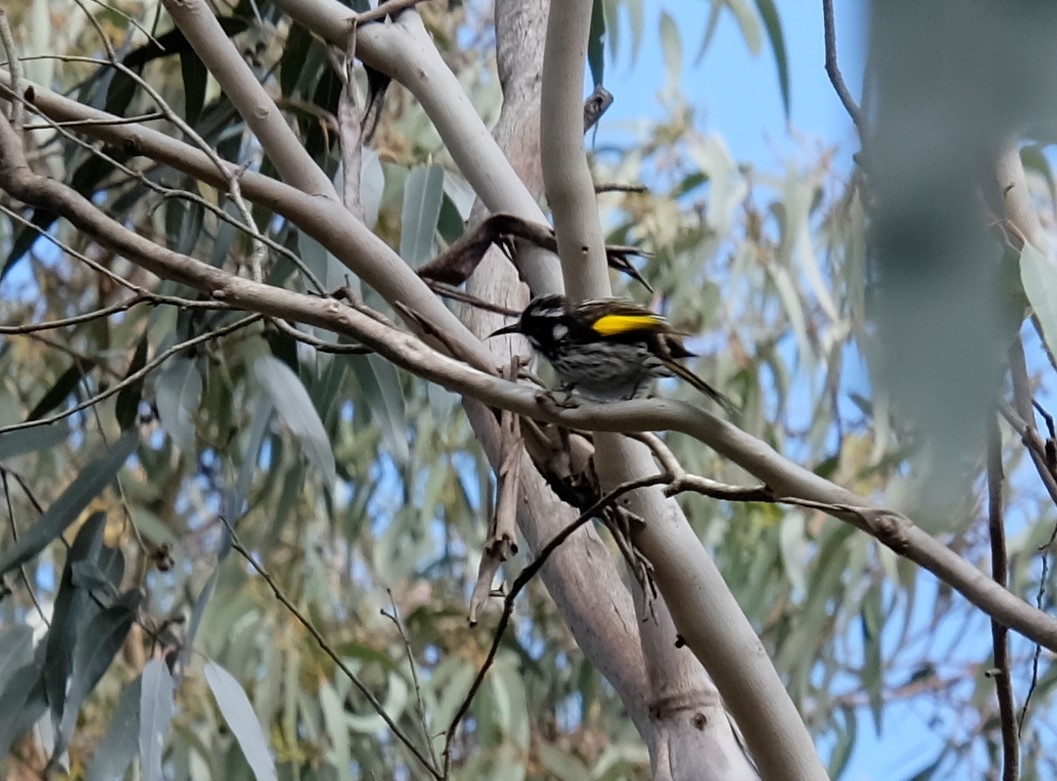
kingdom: Animalia
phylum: Chordata
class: Aves
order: Passeriformes
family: Meliphagidae
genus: Phylidonyris
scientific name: Phylidonyris novaehollandiae
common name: New holland honeyeater
